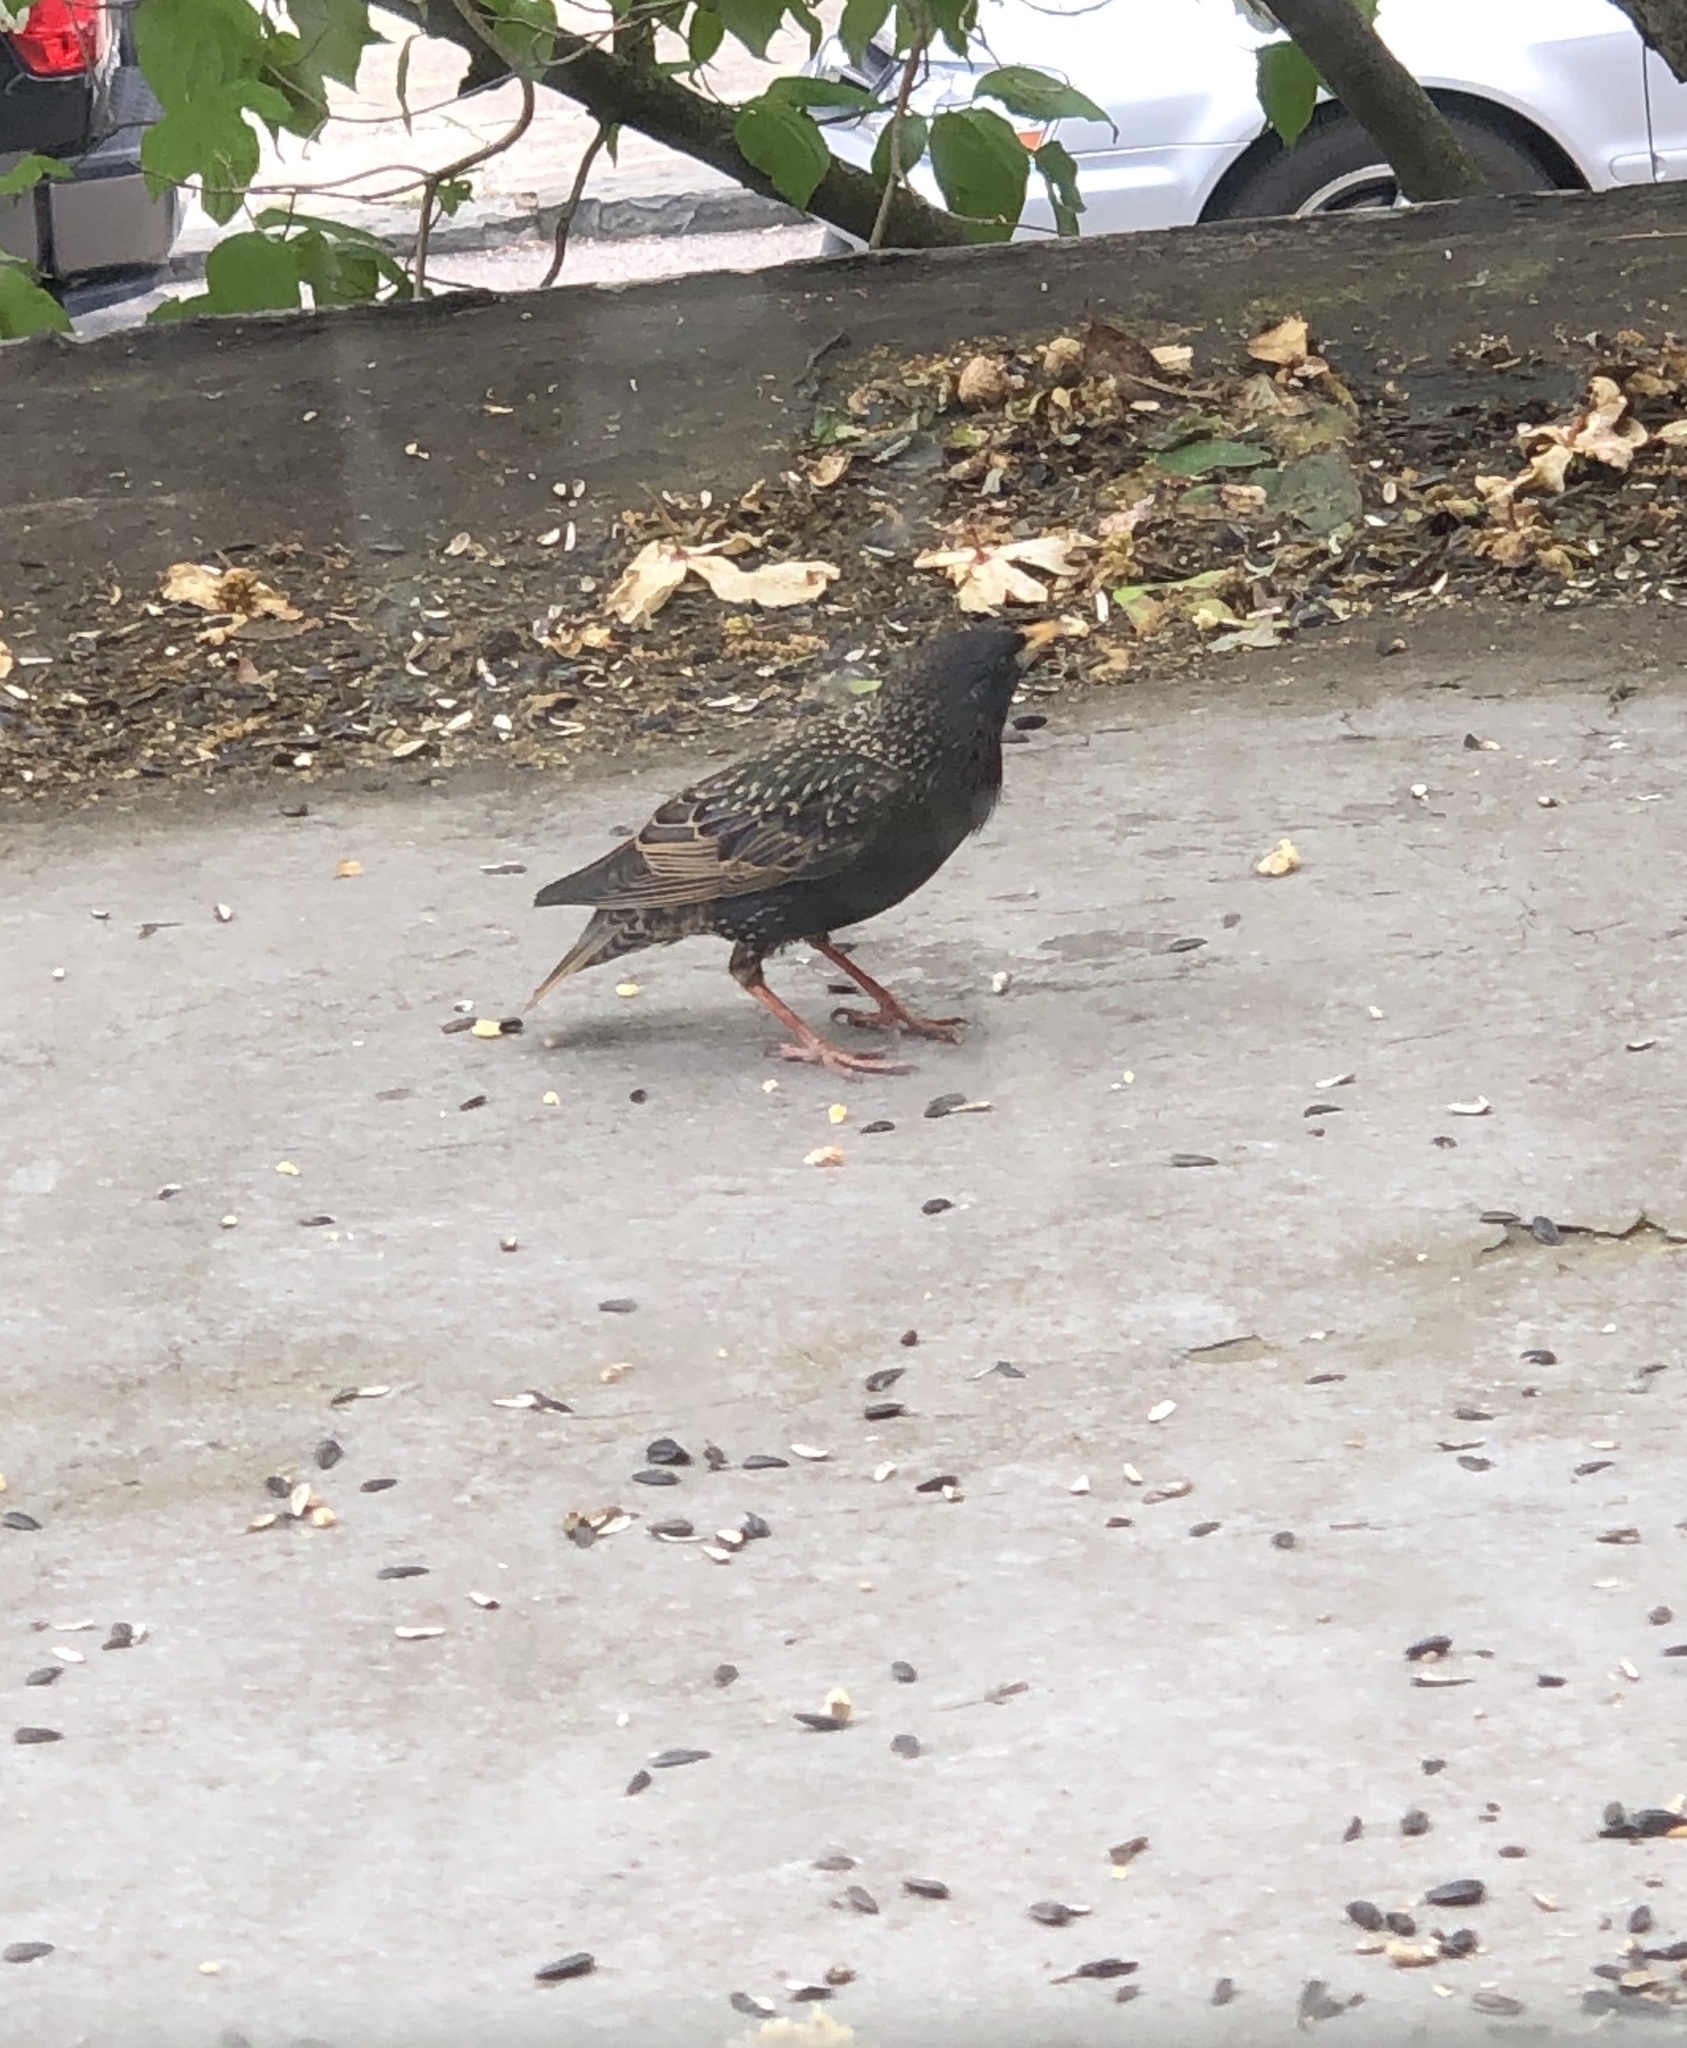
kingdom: Animalia
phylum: Chordata
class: Aves
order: Passeriformes
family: Sturnidae
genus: Sturnus
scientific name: Sturnus vulgaris
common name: Common starling
